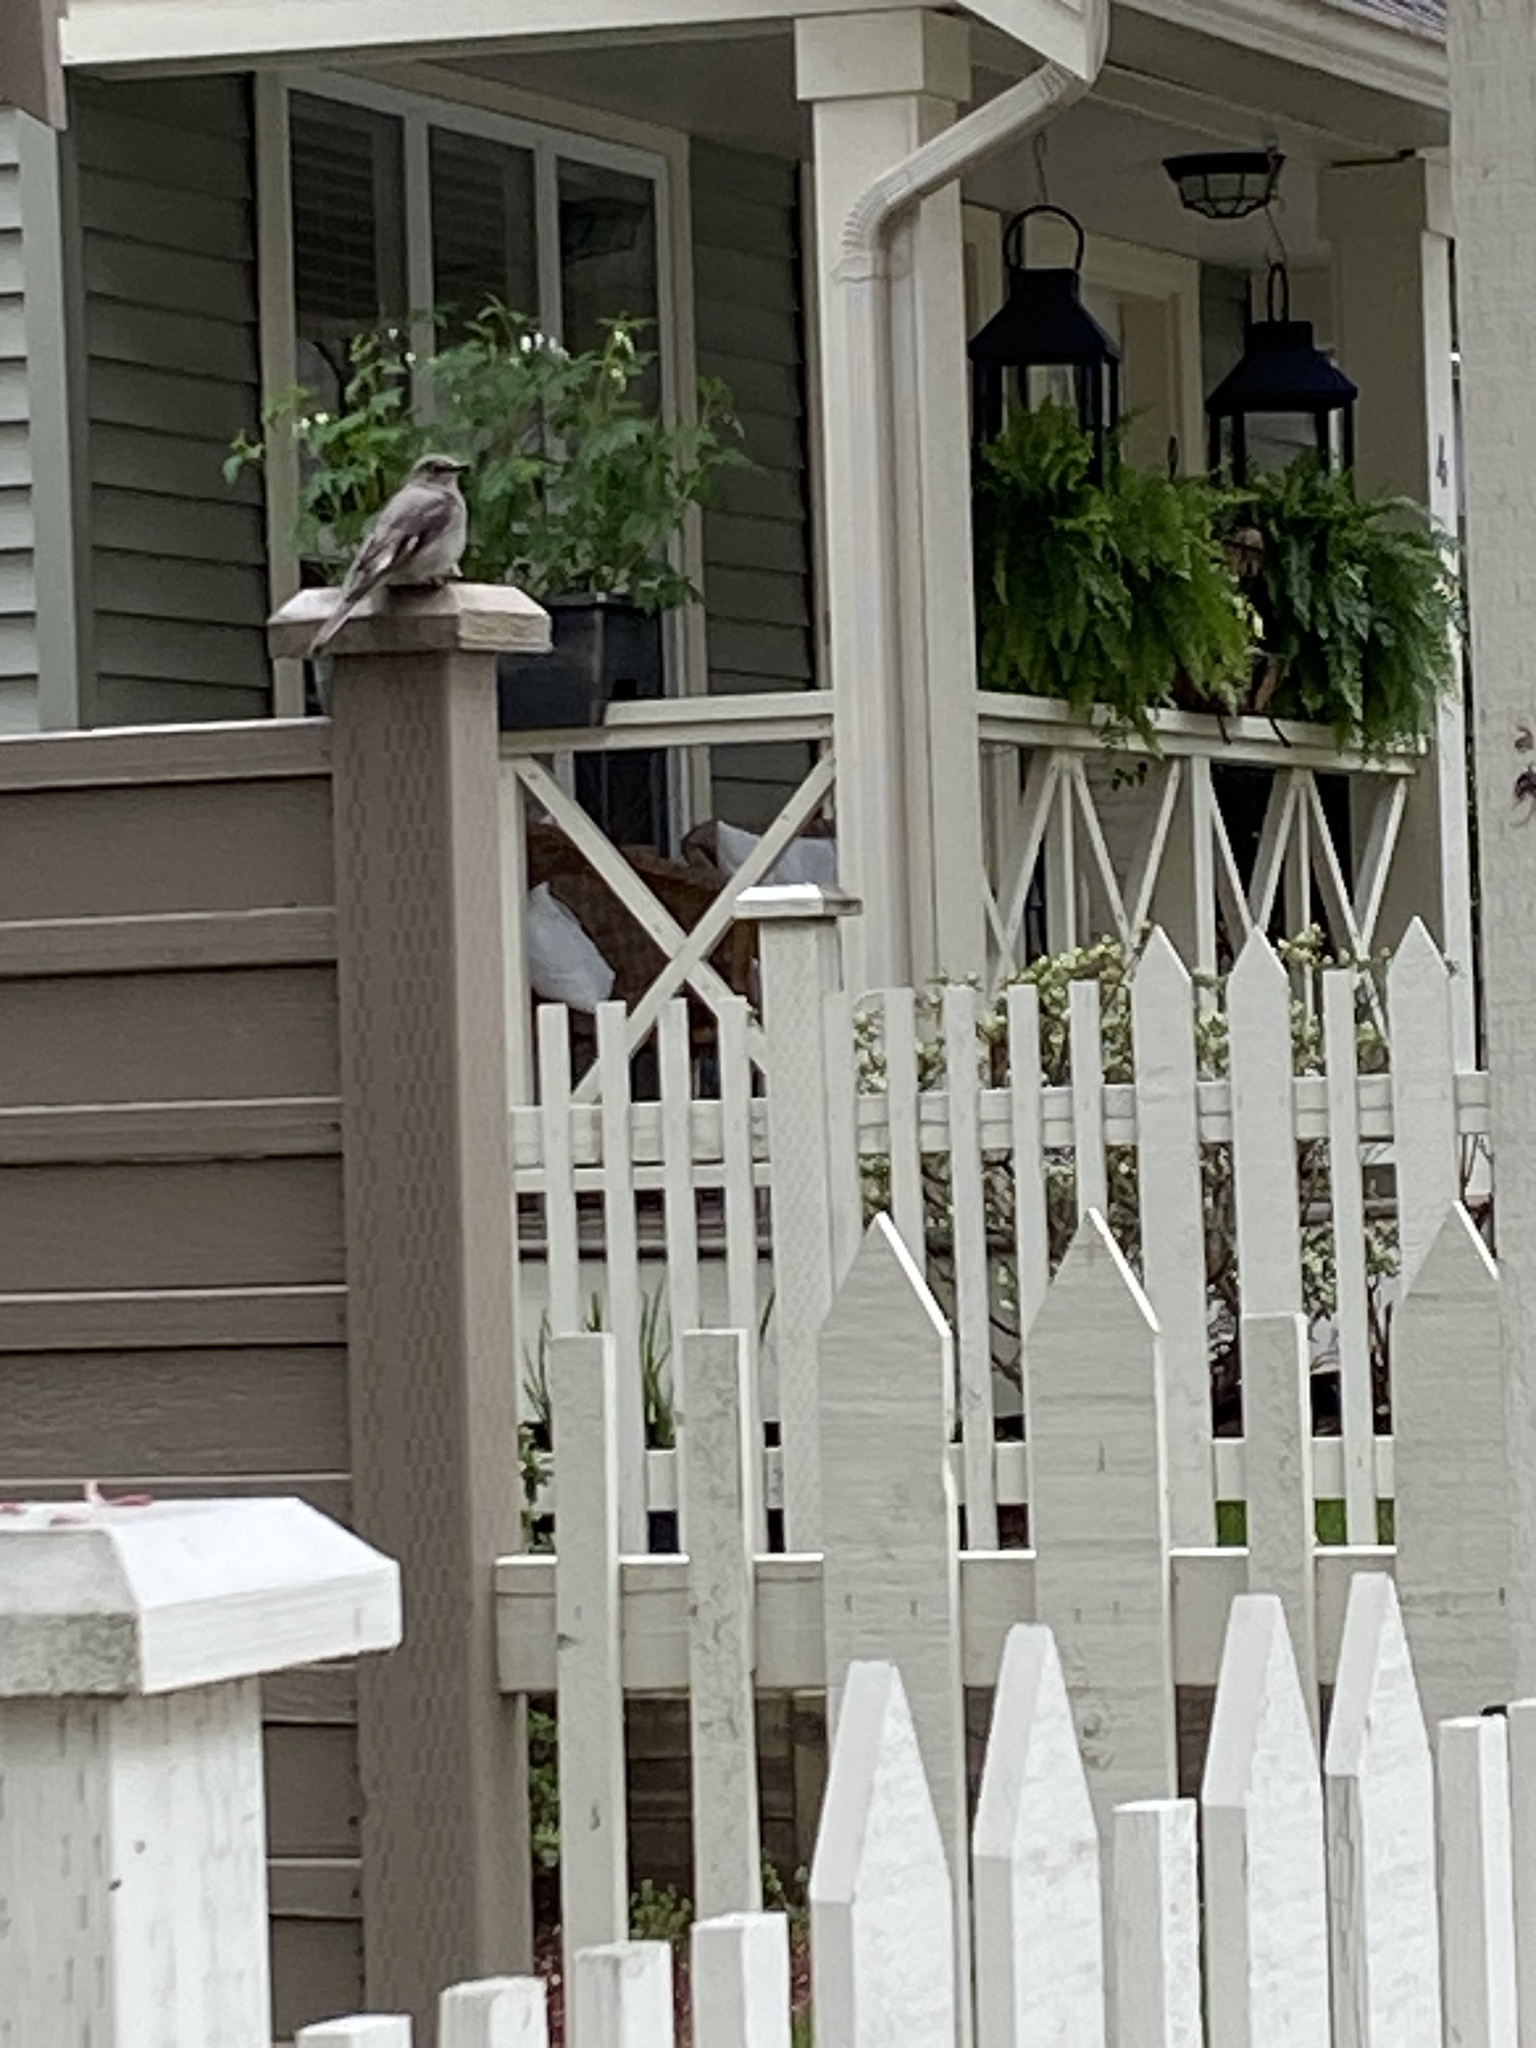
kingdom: Animalia
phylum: Chordata
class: Aves
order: Passeriformes
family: Turdidae
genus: Myadestes
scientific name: Myadestes townsendi
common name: Townsend's solitaire
